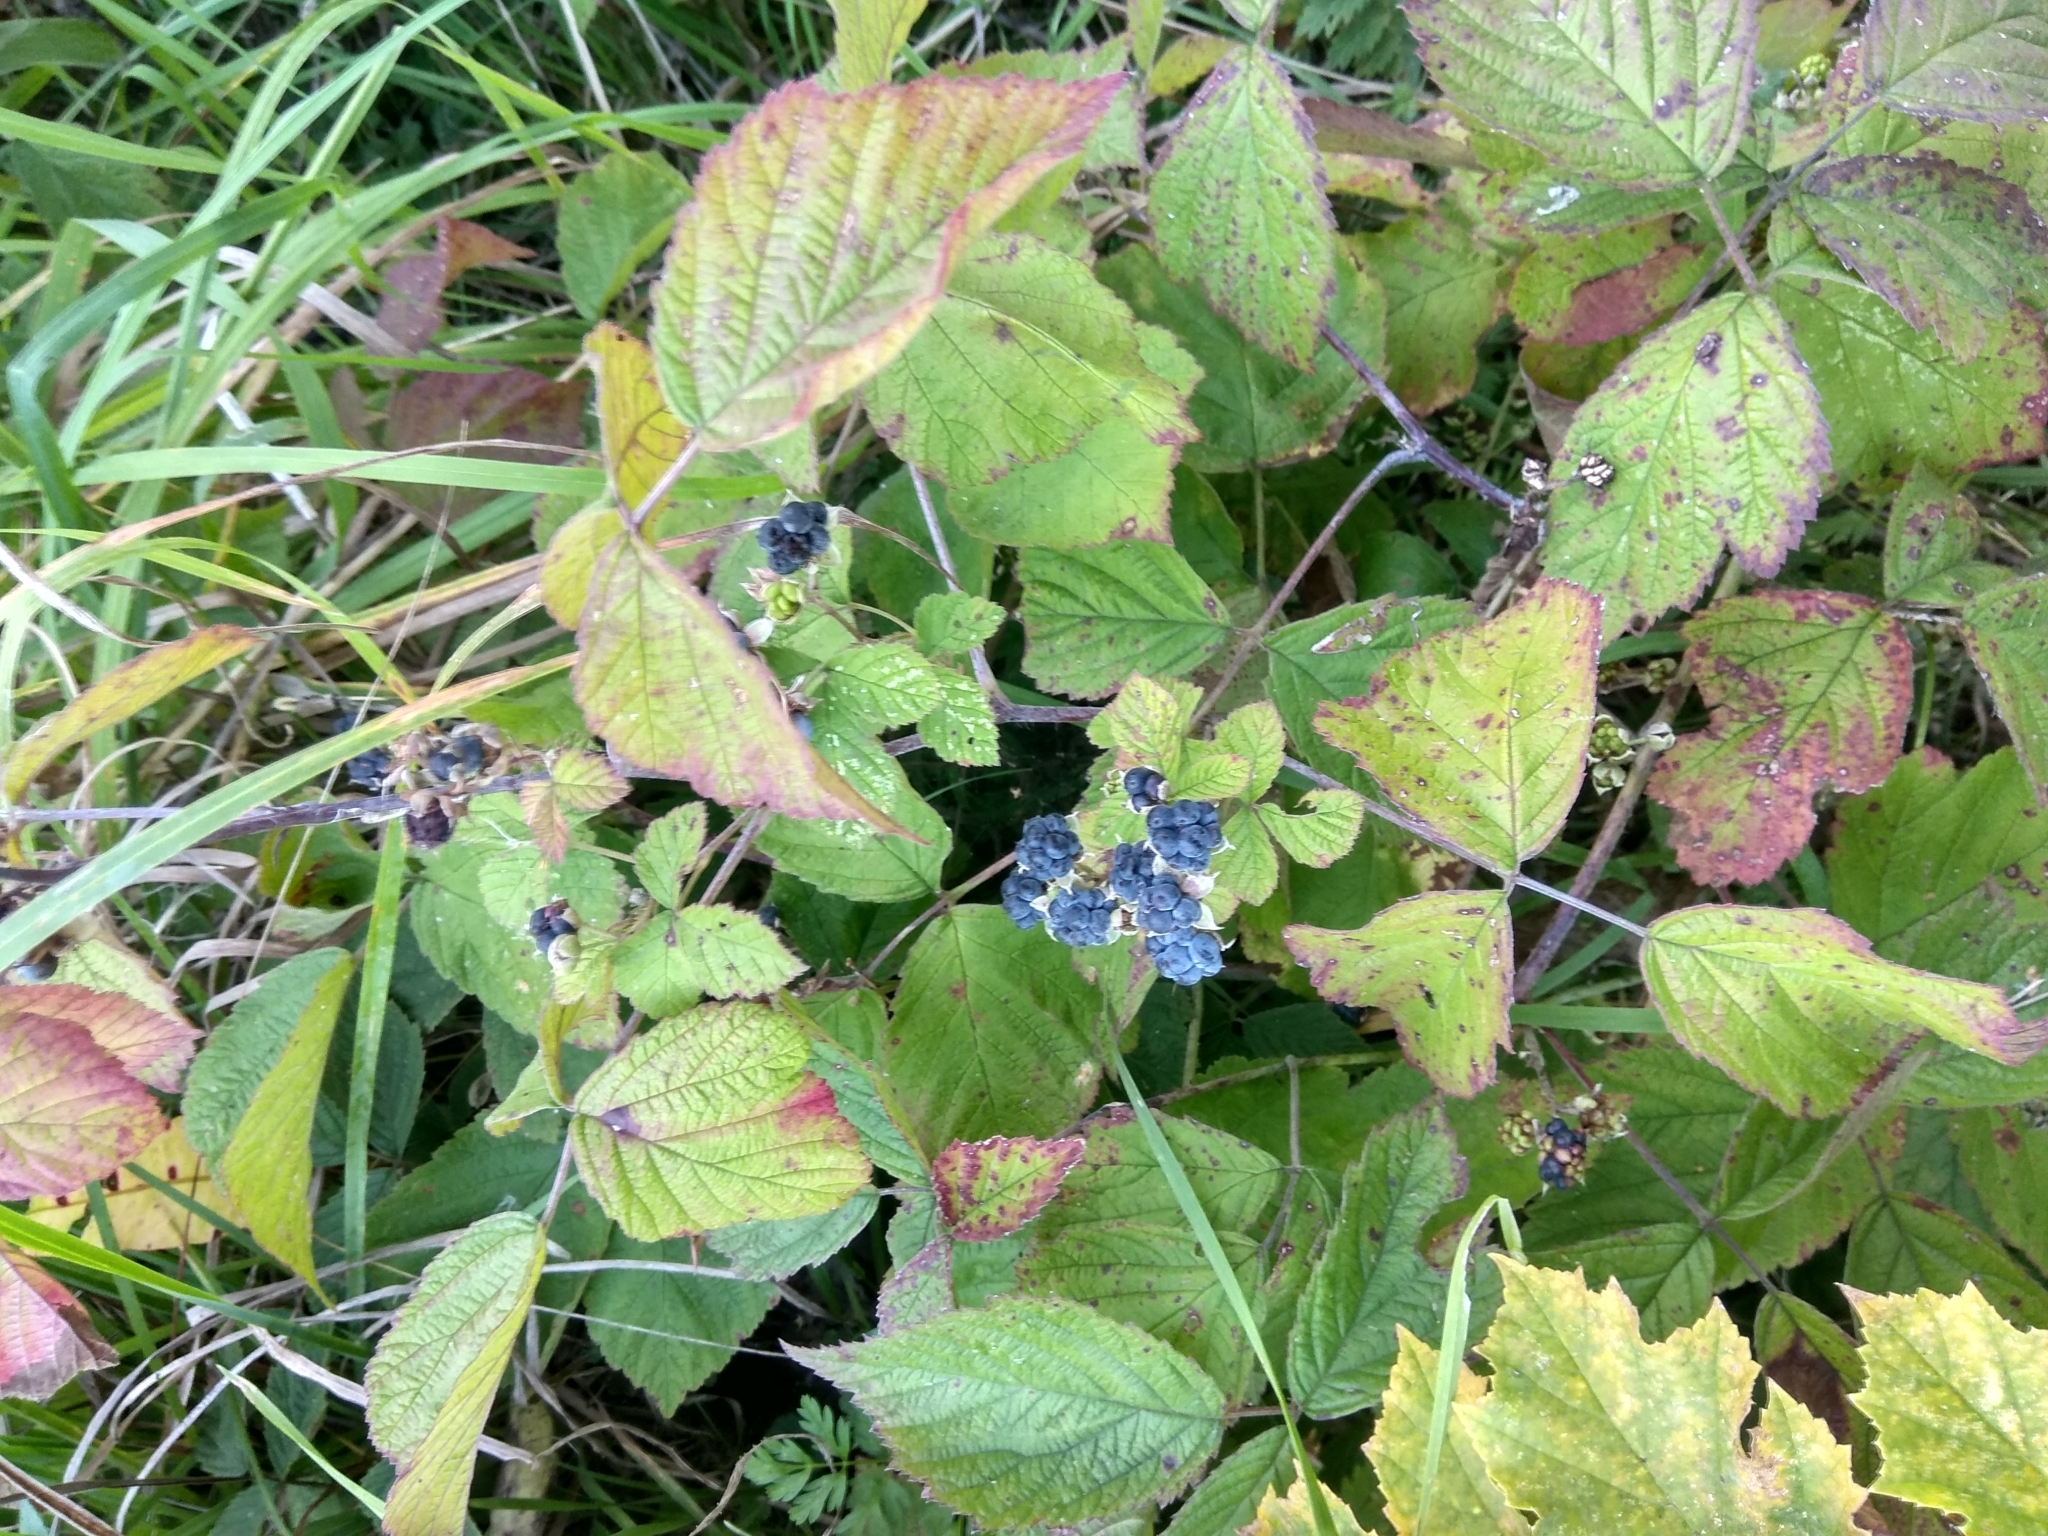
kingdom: Plantae
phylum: Tracheophyta
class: Magnoliopsida
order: Rosales
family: Rosaceae
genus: Rubus
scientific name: Rubus caesius
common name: Dewberry
